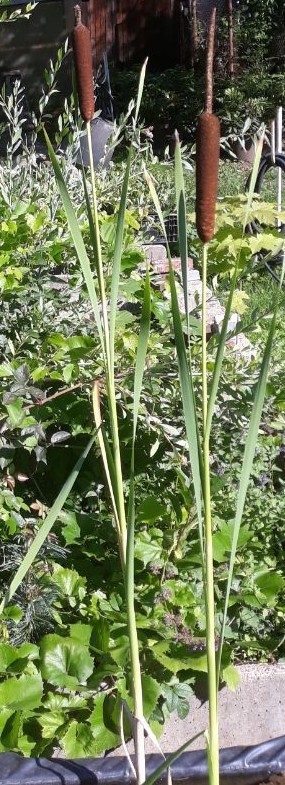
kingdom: Plantae
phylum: Tracheophyta
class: Liliopsida
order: Poales
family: Typhaceae
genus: Typha
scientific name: Typha latifolia
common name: Broadleaf cattail
